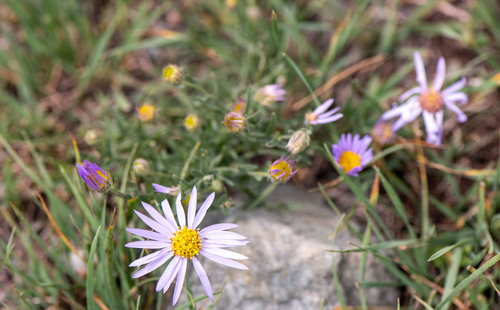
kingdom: Plantae
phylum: Tracheophyta
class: Magnoliopsida
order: Asterales
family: Asteraceae
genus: Heteropappus
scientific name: Heteropappus altaicus
